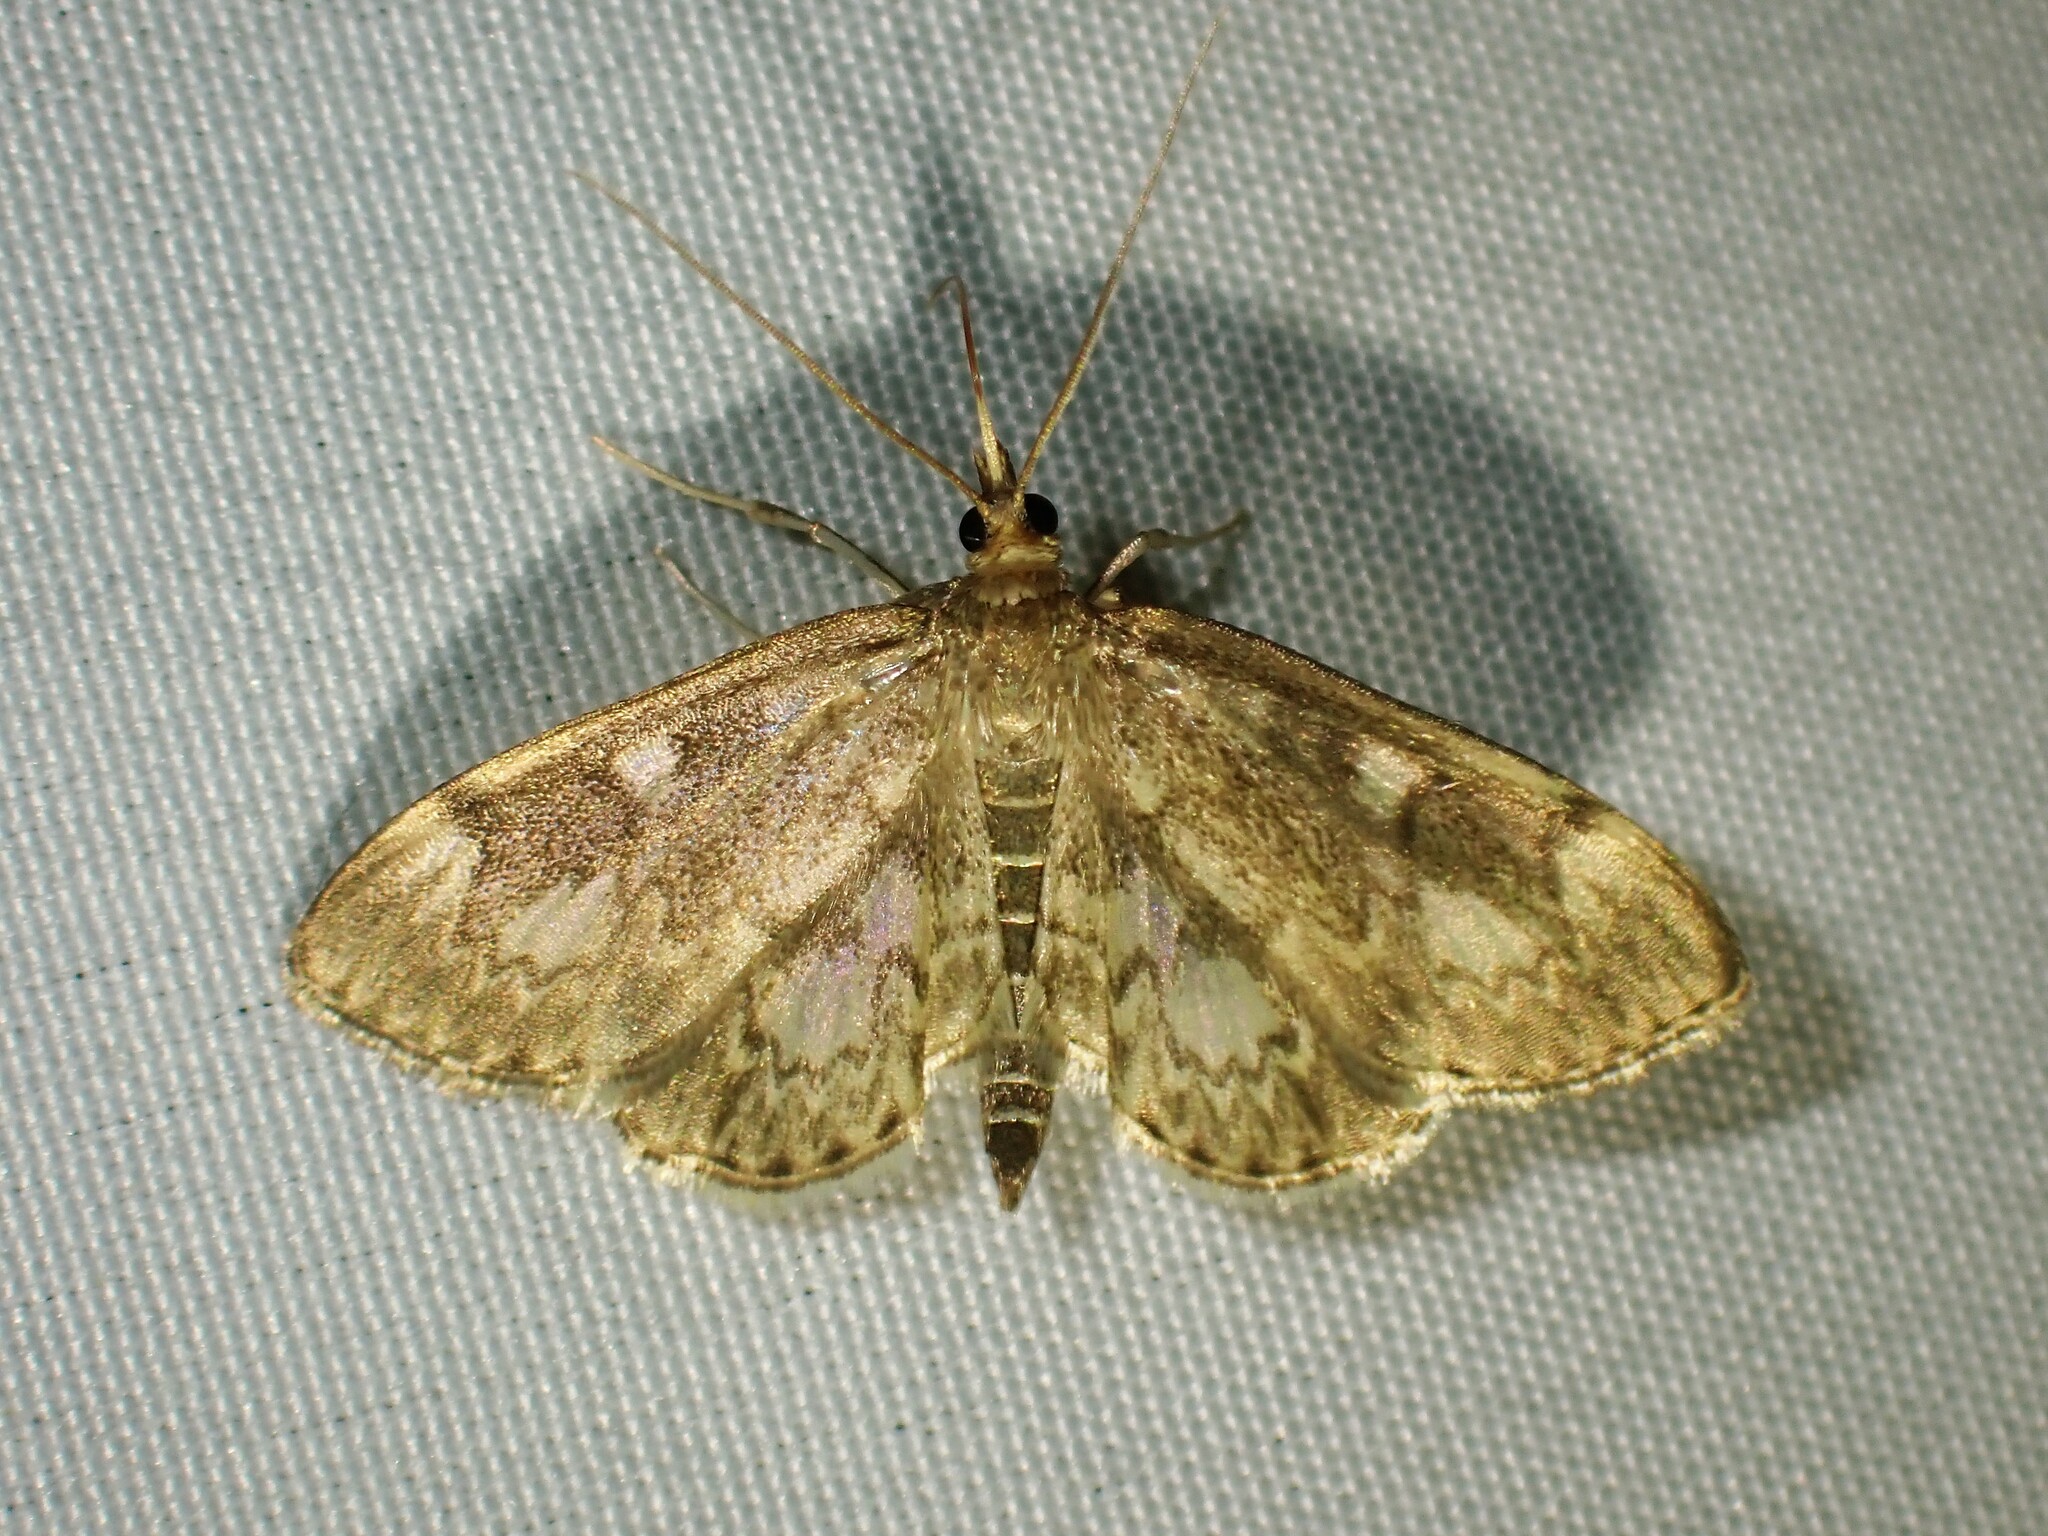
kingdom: Animalia
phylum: Arthropoda
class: Insecta
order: Lepidoptera
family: Crambidae
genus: Anania
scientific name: Anania
